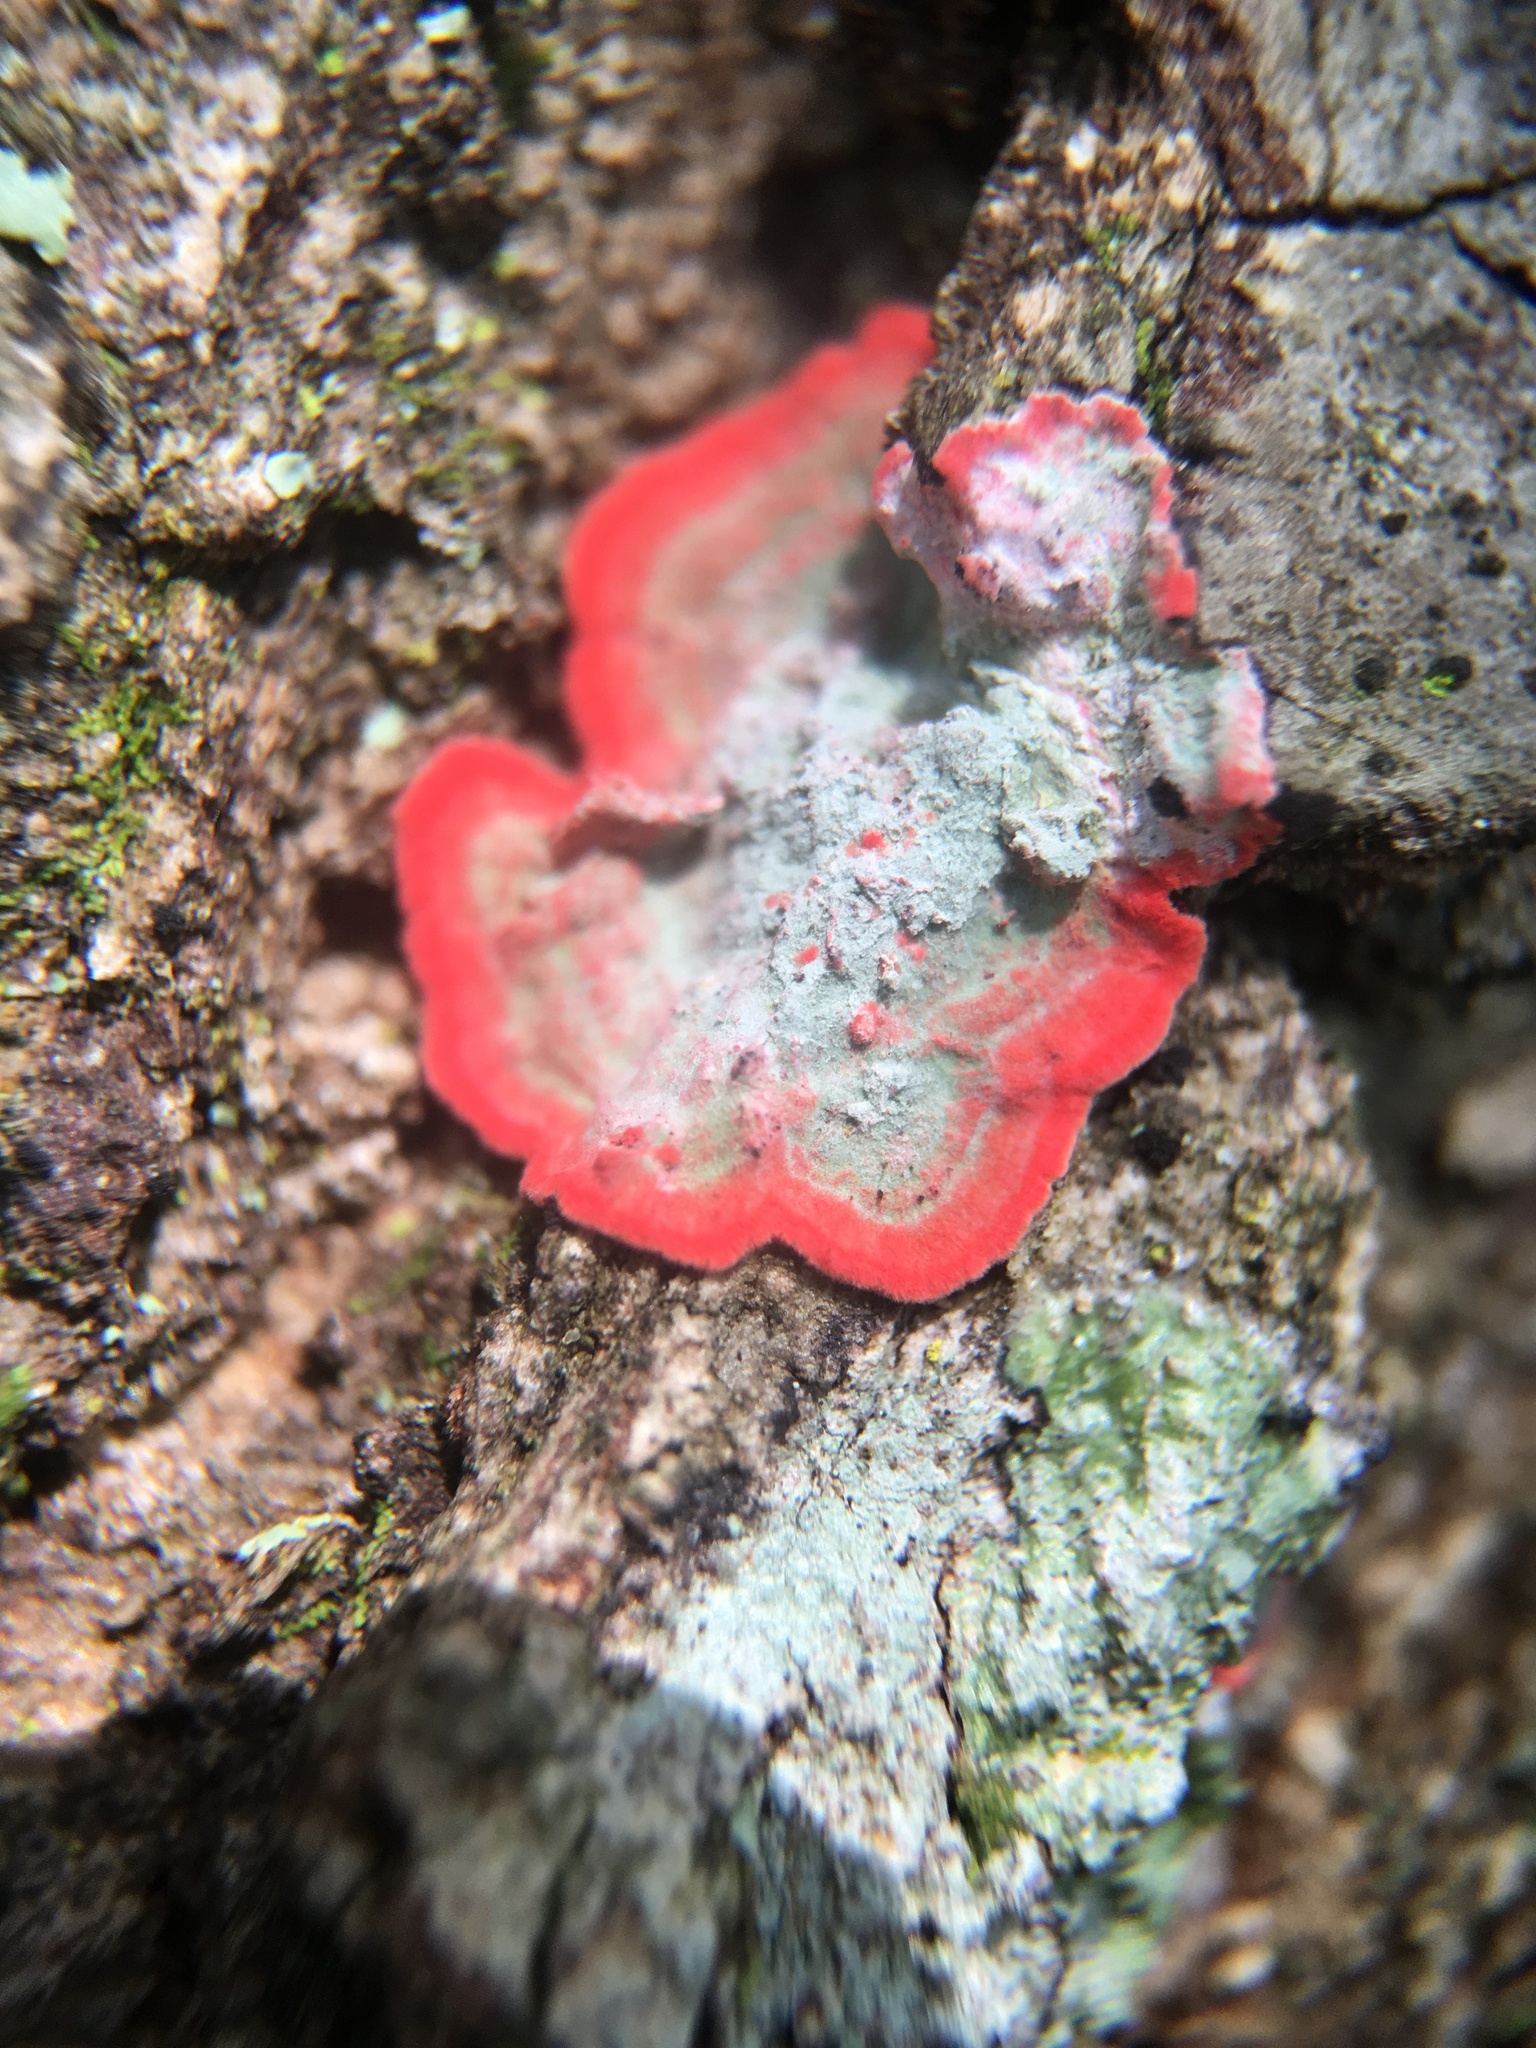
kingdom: Fungi
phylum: Ascomycota
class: Arthoniomycetes
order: Arthoniales
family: Arthoniaceae
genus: Herpothallon
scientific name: Herpothallon rubrocinctum
